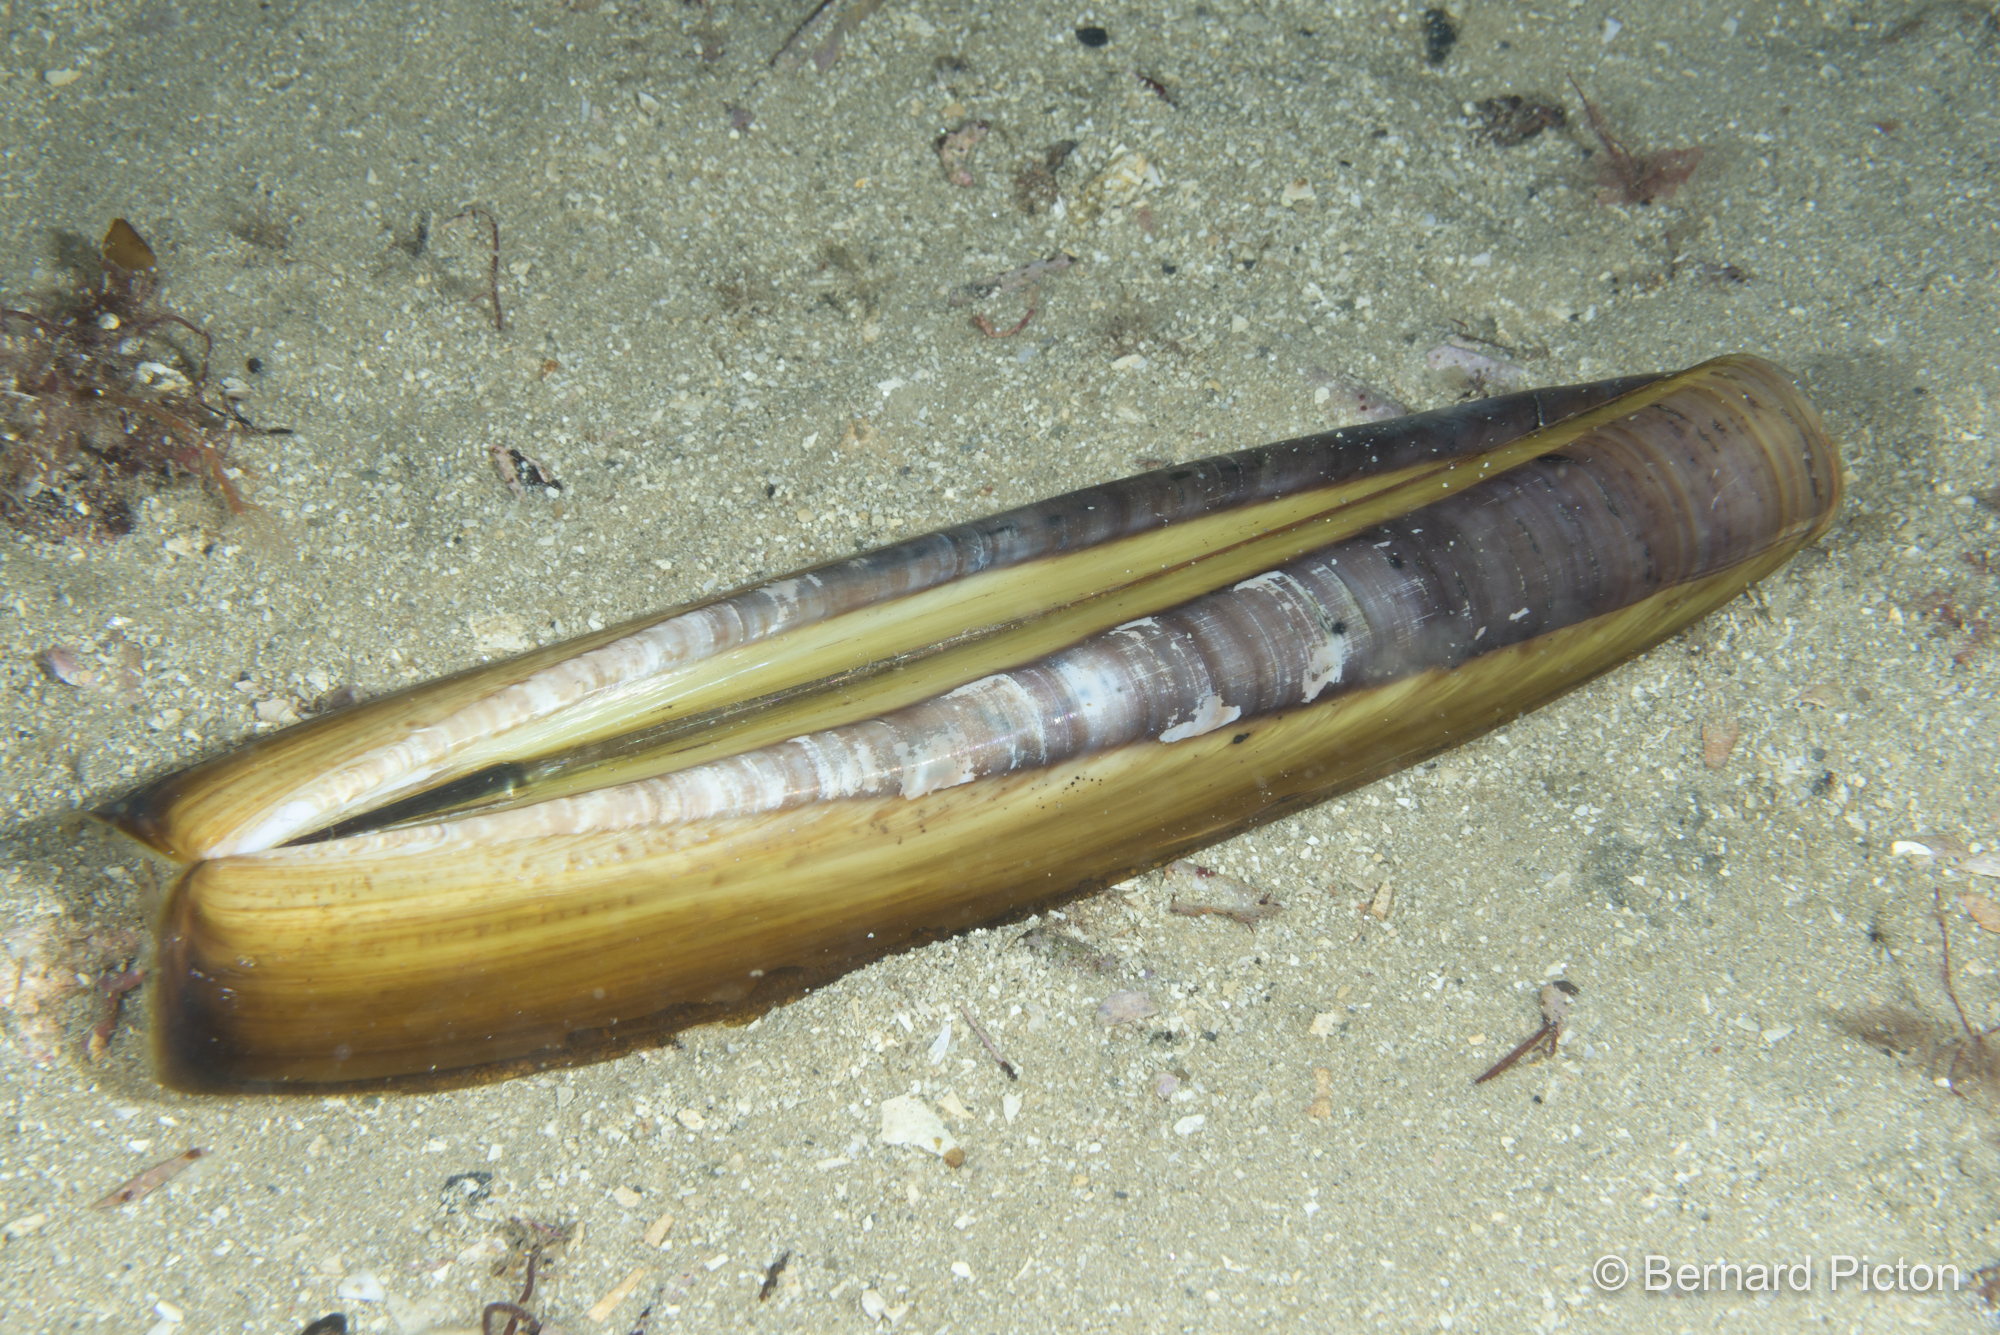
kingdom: Animalia
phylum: Mollusca
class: Bivalvia
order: Adapedonta
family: Pharidae
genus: Ensis
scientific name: Ensis magnus
